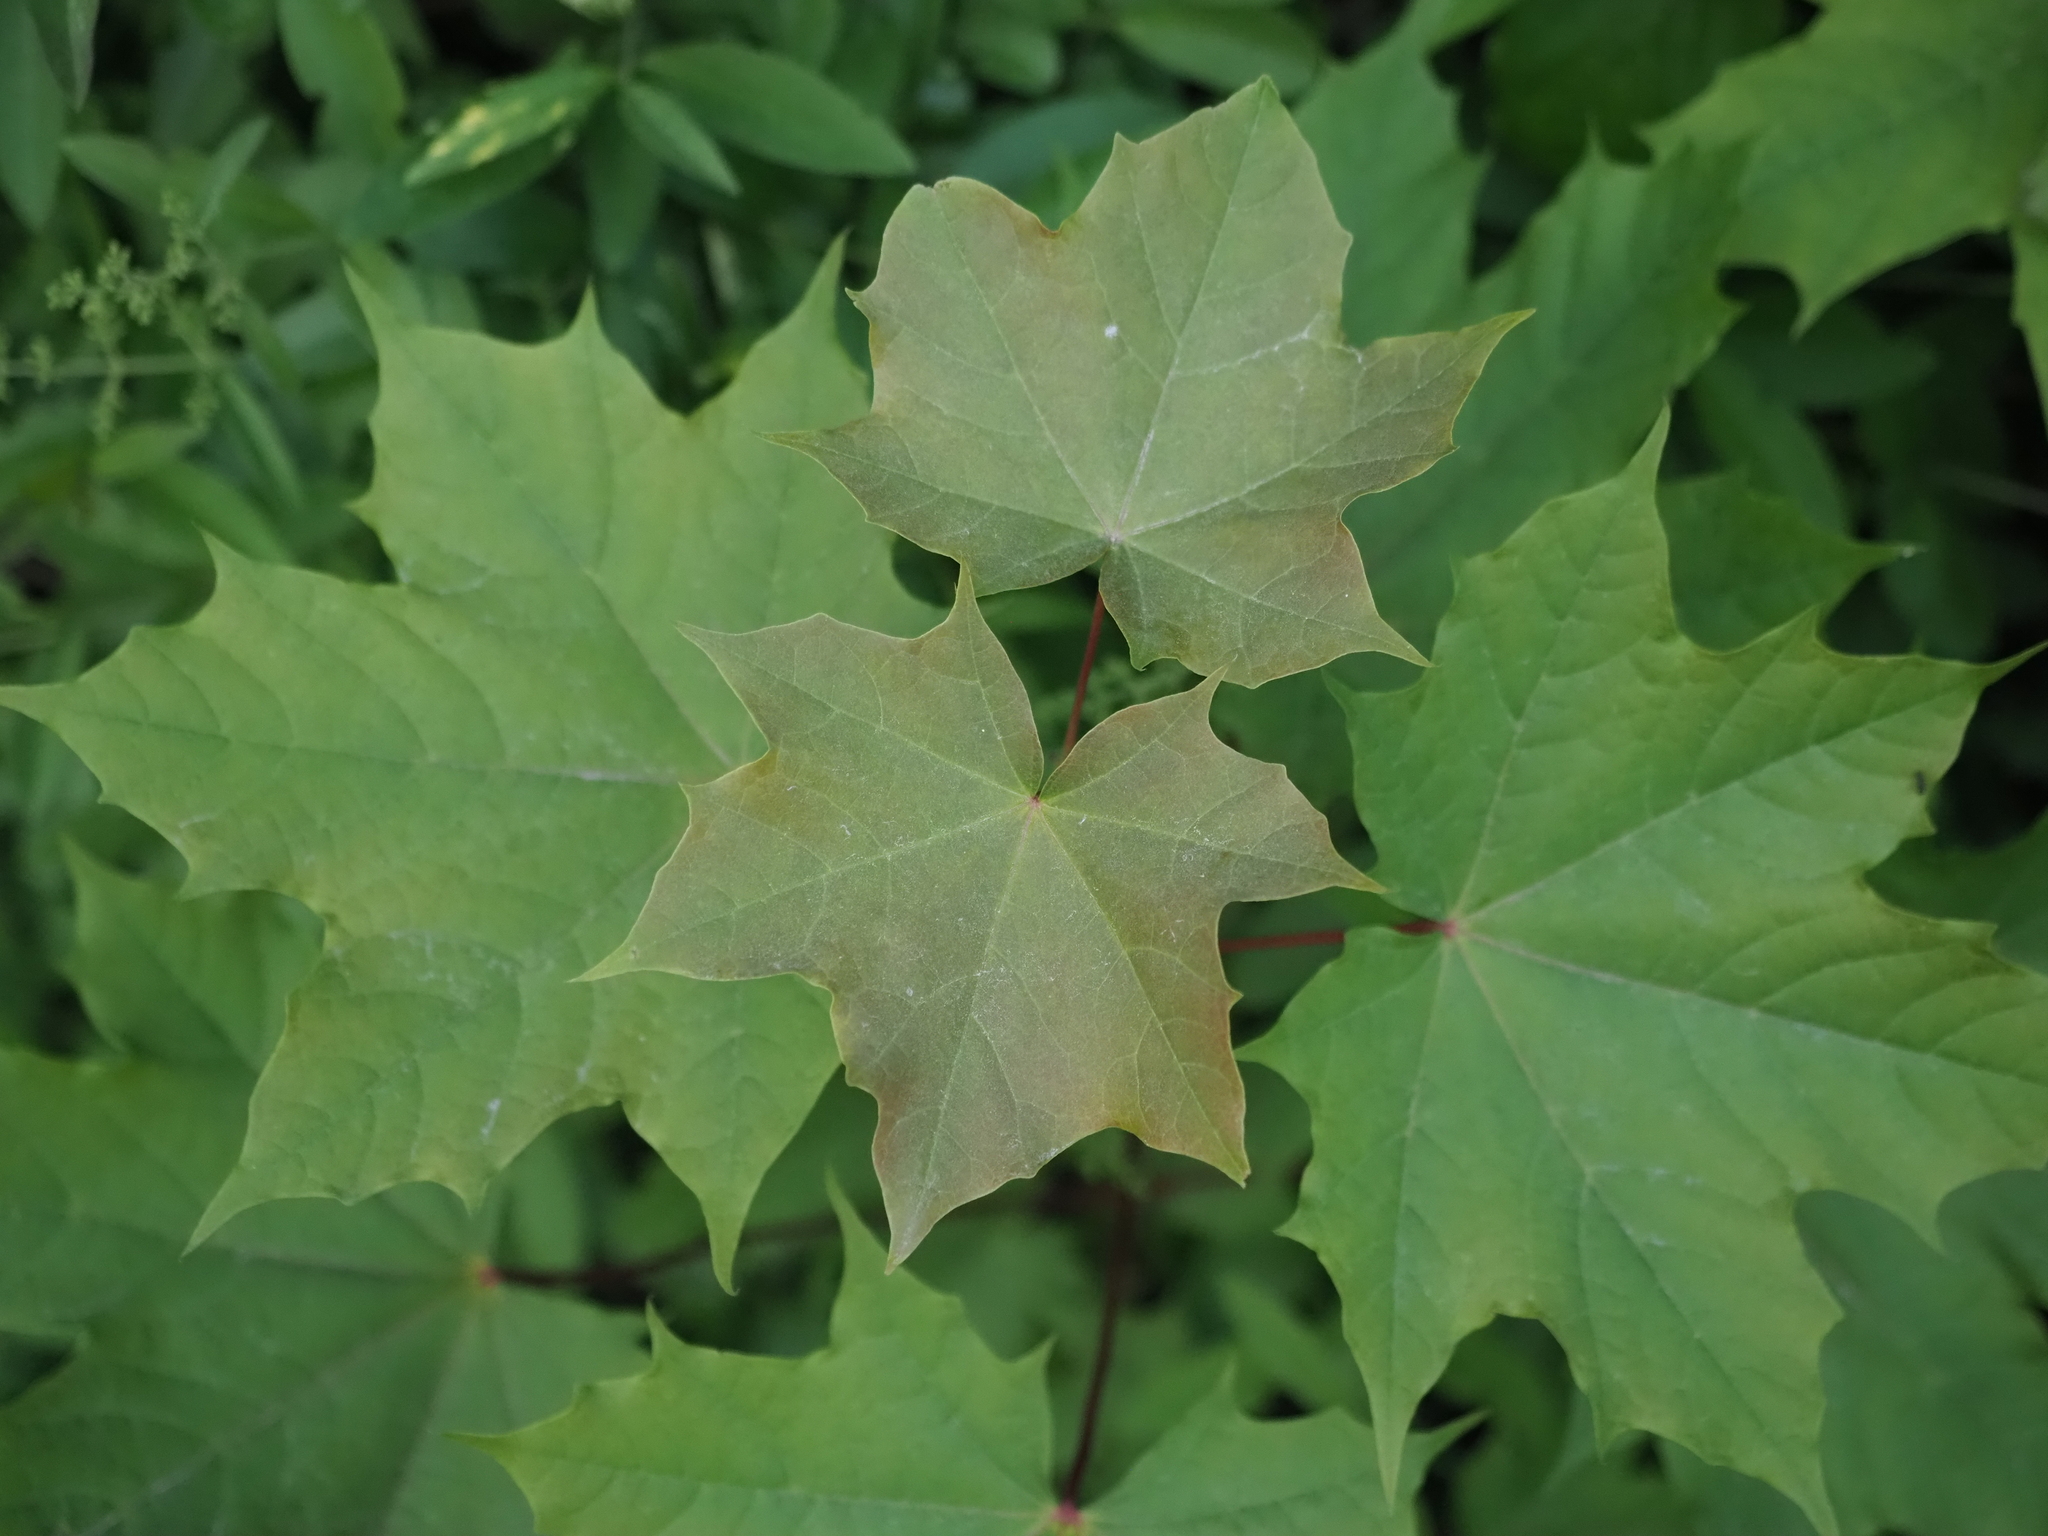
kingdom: Plantae
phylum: Tracheophyta
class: Magnoliopsida
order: Sapindales
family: Sapindaceae
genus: Acer
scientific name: Acer platanoides
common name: Norway maple
